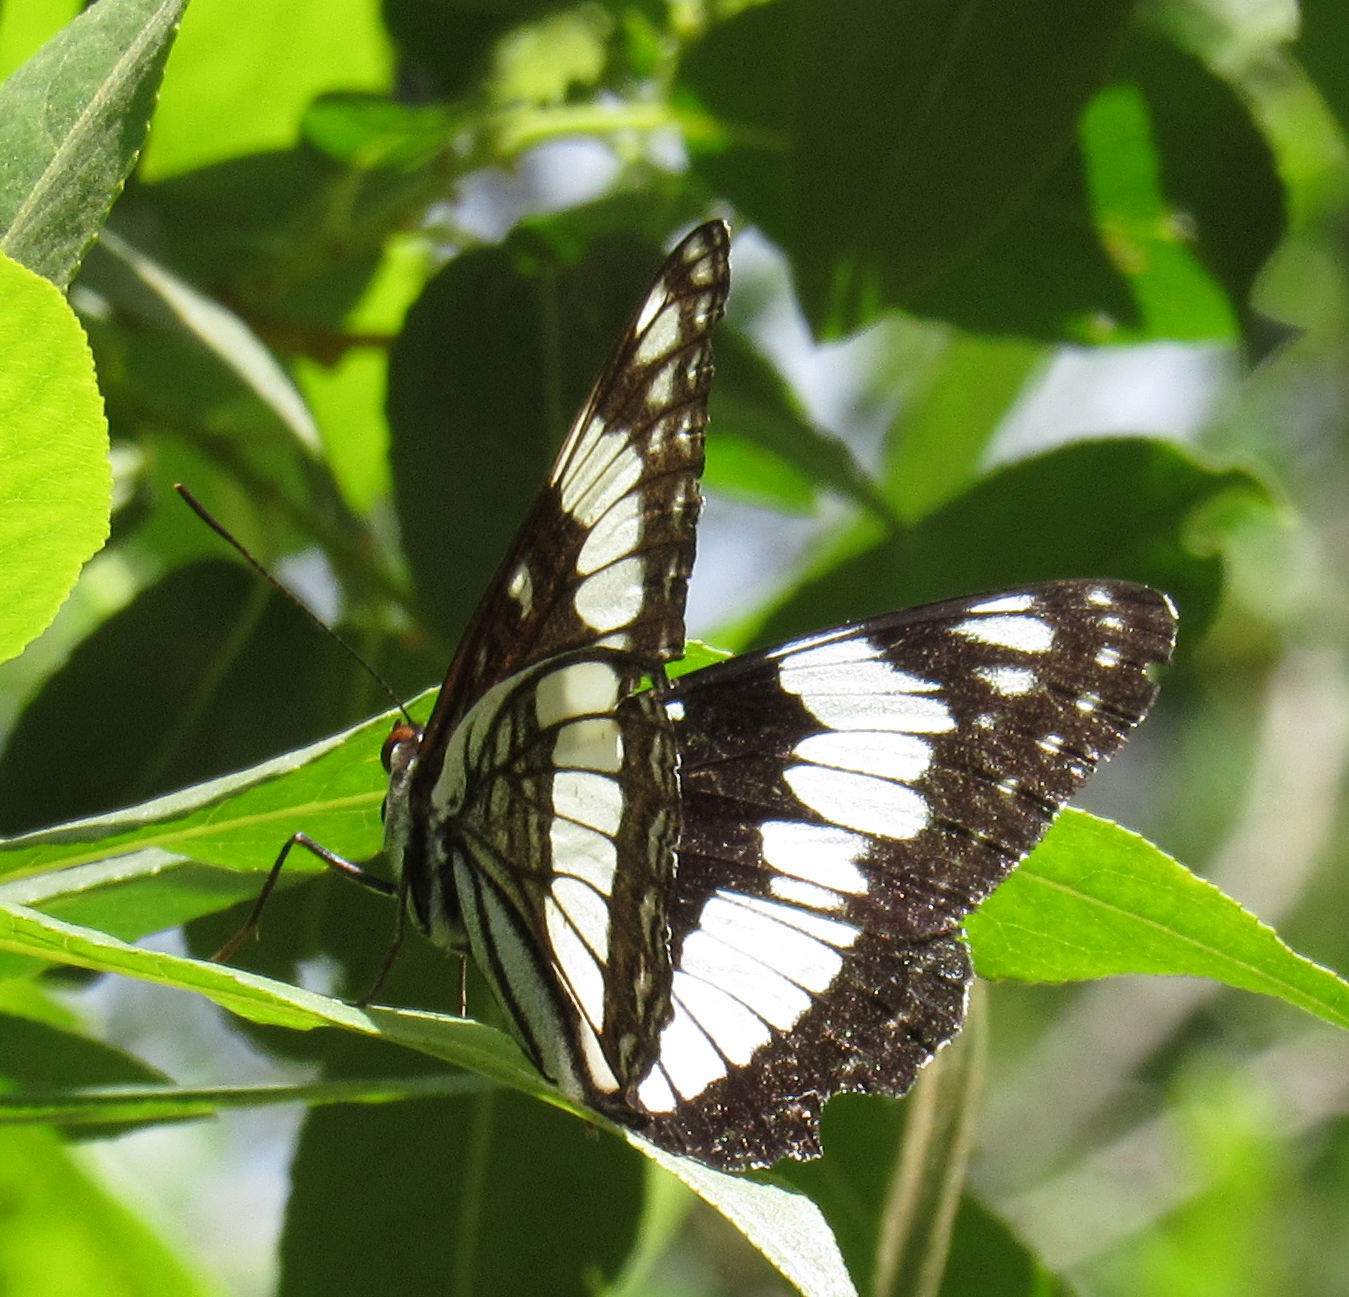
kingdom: Animalia
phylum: Arthropoda
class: Insecta
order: Lepidoptera
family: Nymphalidae
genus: Limenitis
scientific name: Limenitis weidemeyerii
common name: Weidemeyer's admiral
